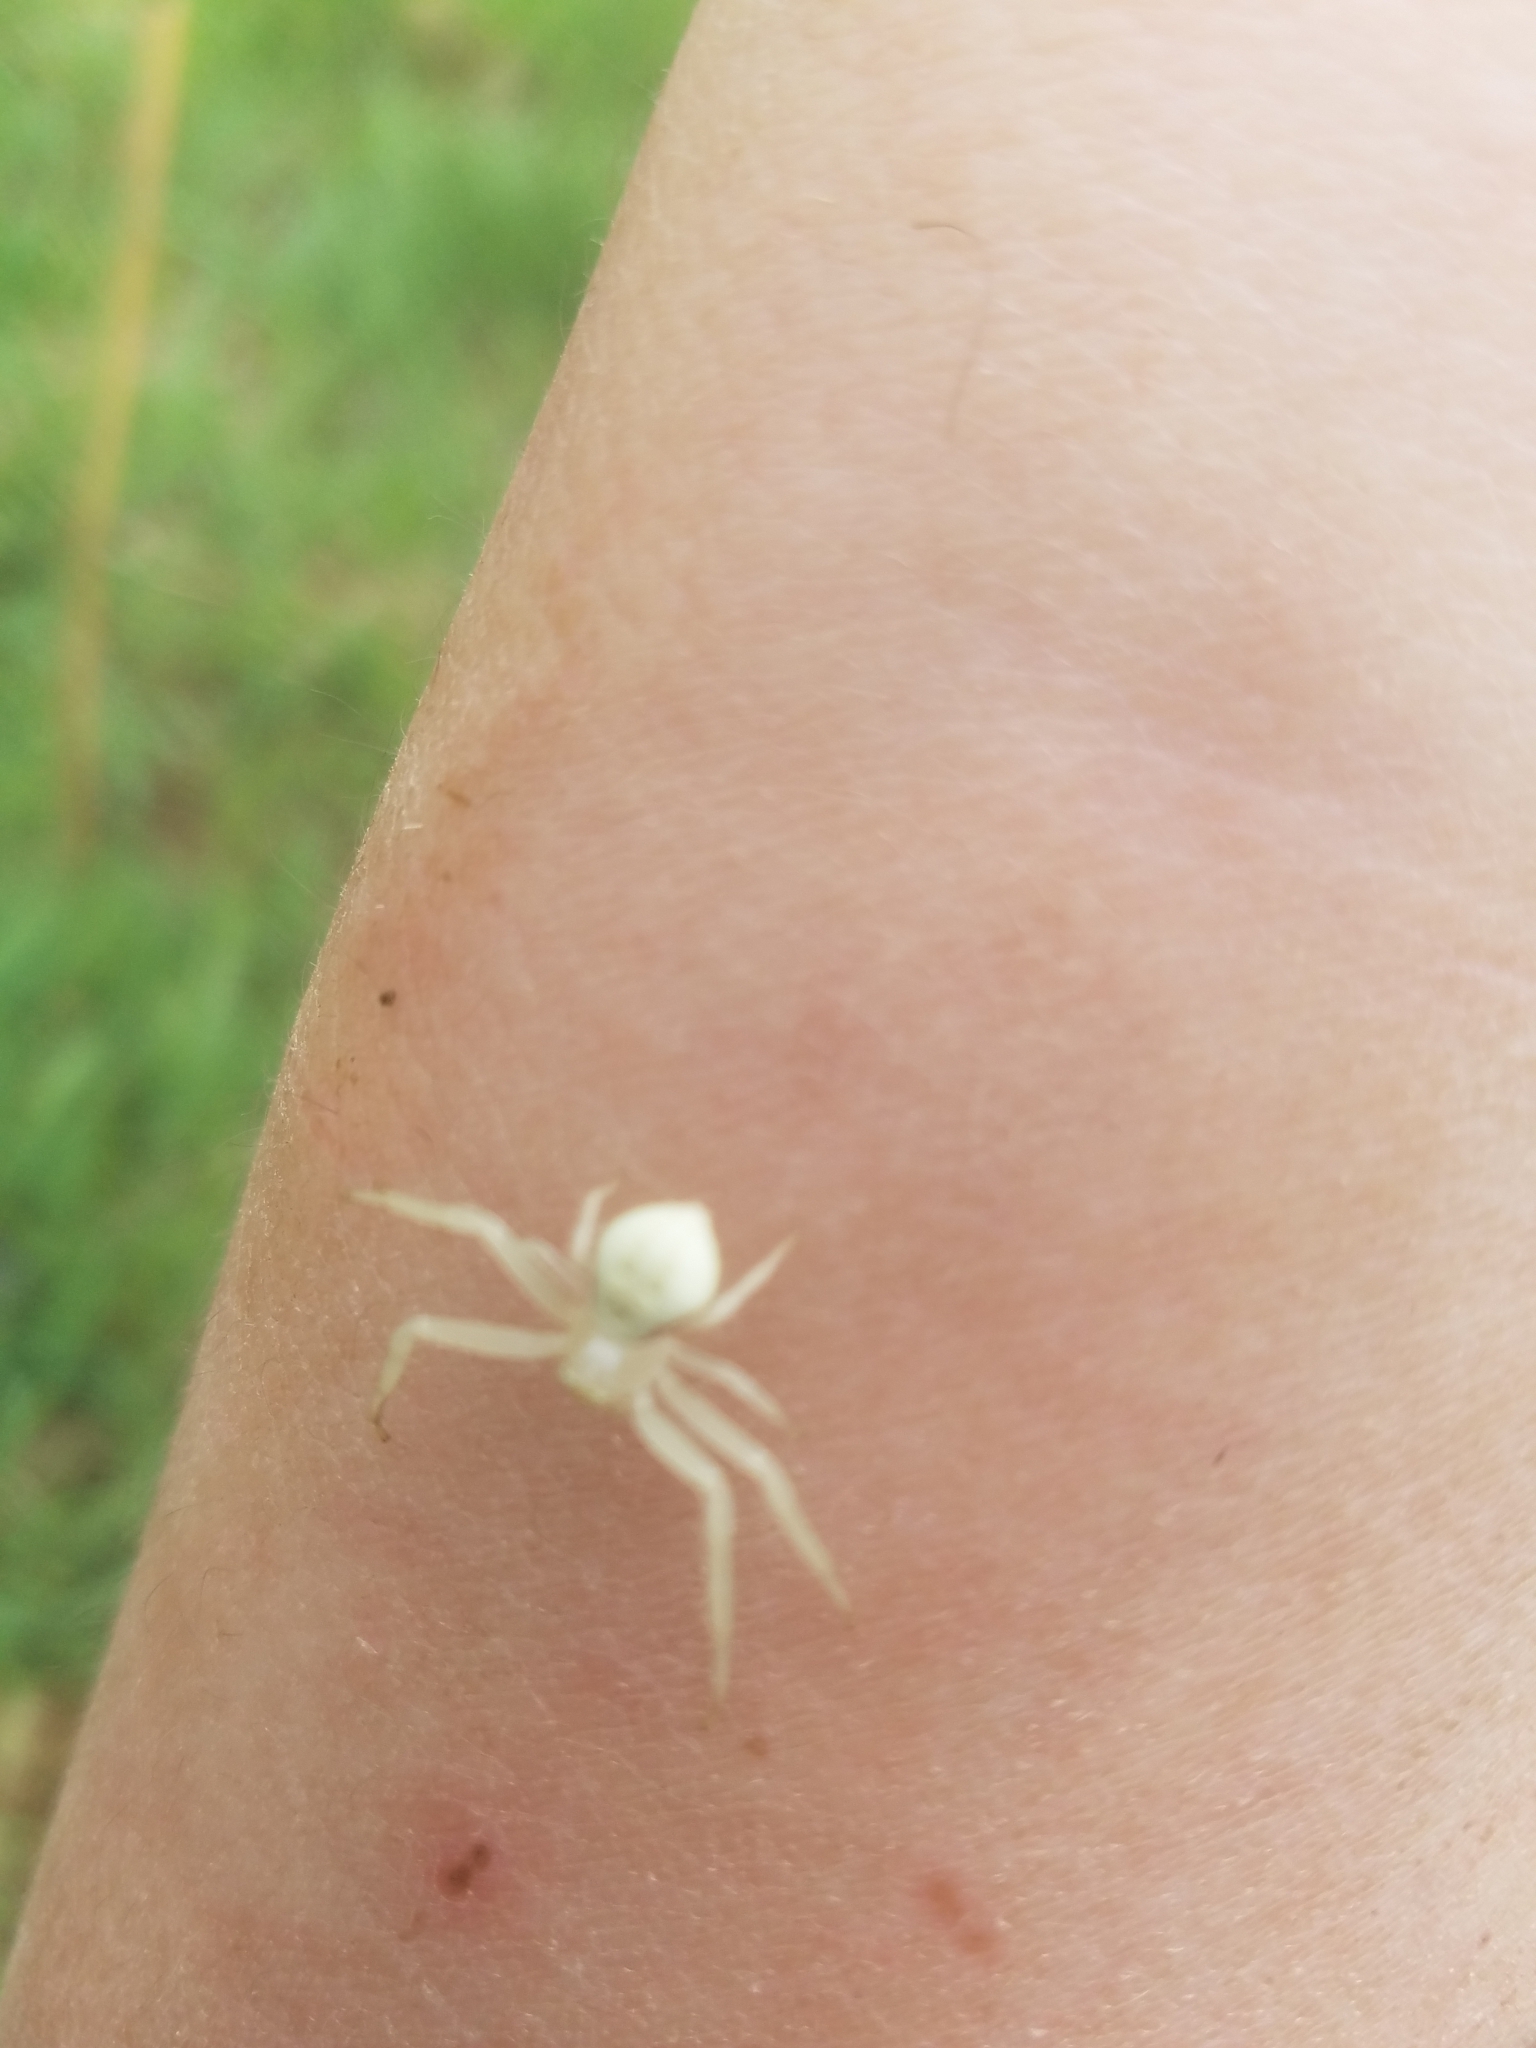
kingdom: Animalia
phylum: Arthropoda
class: Arachnida
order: Araneae
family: Thomisidae
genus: Misumena
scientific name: Misumena vatia
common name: Goldenrod crab spider
